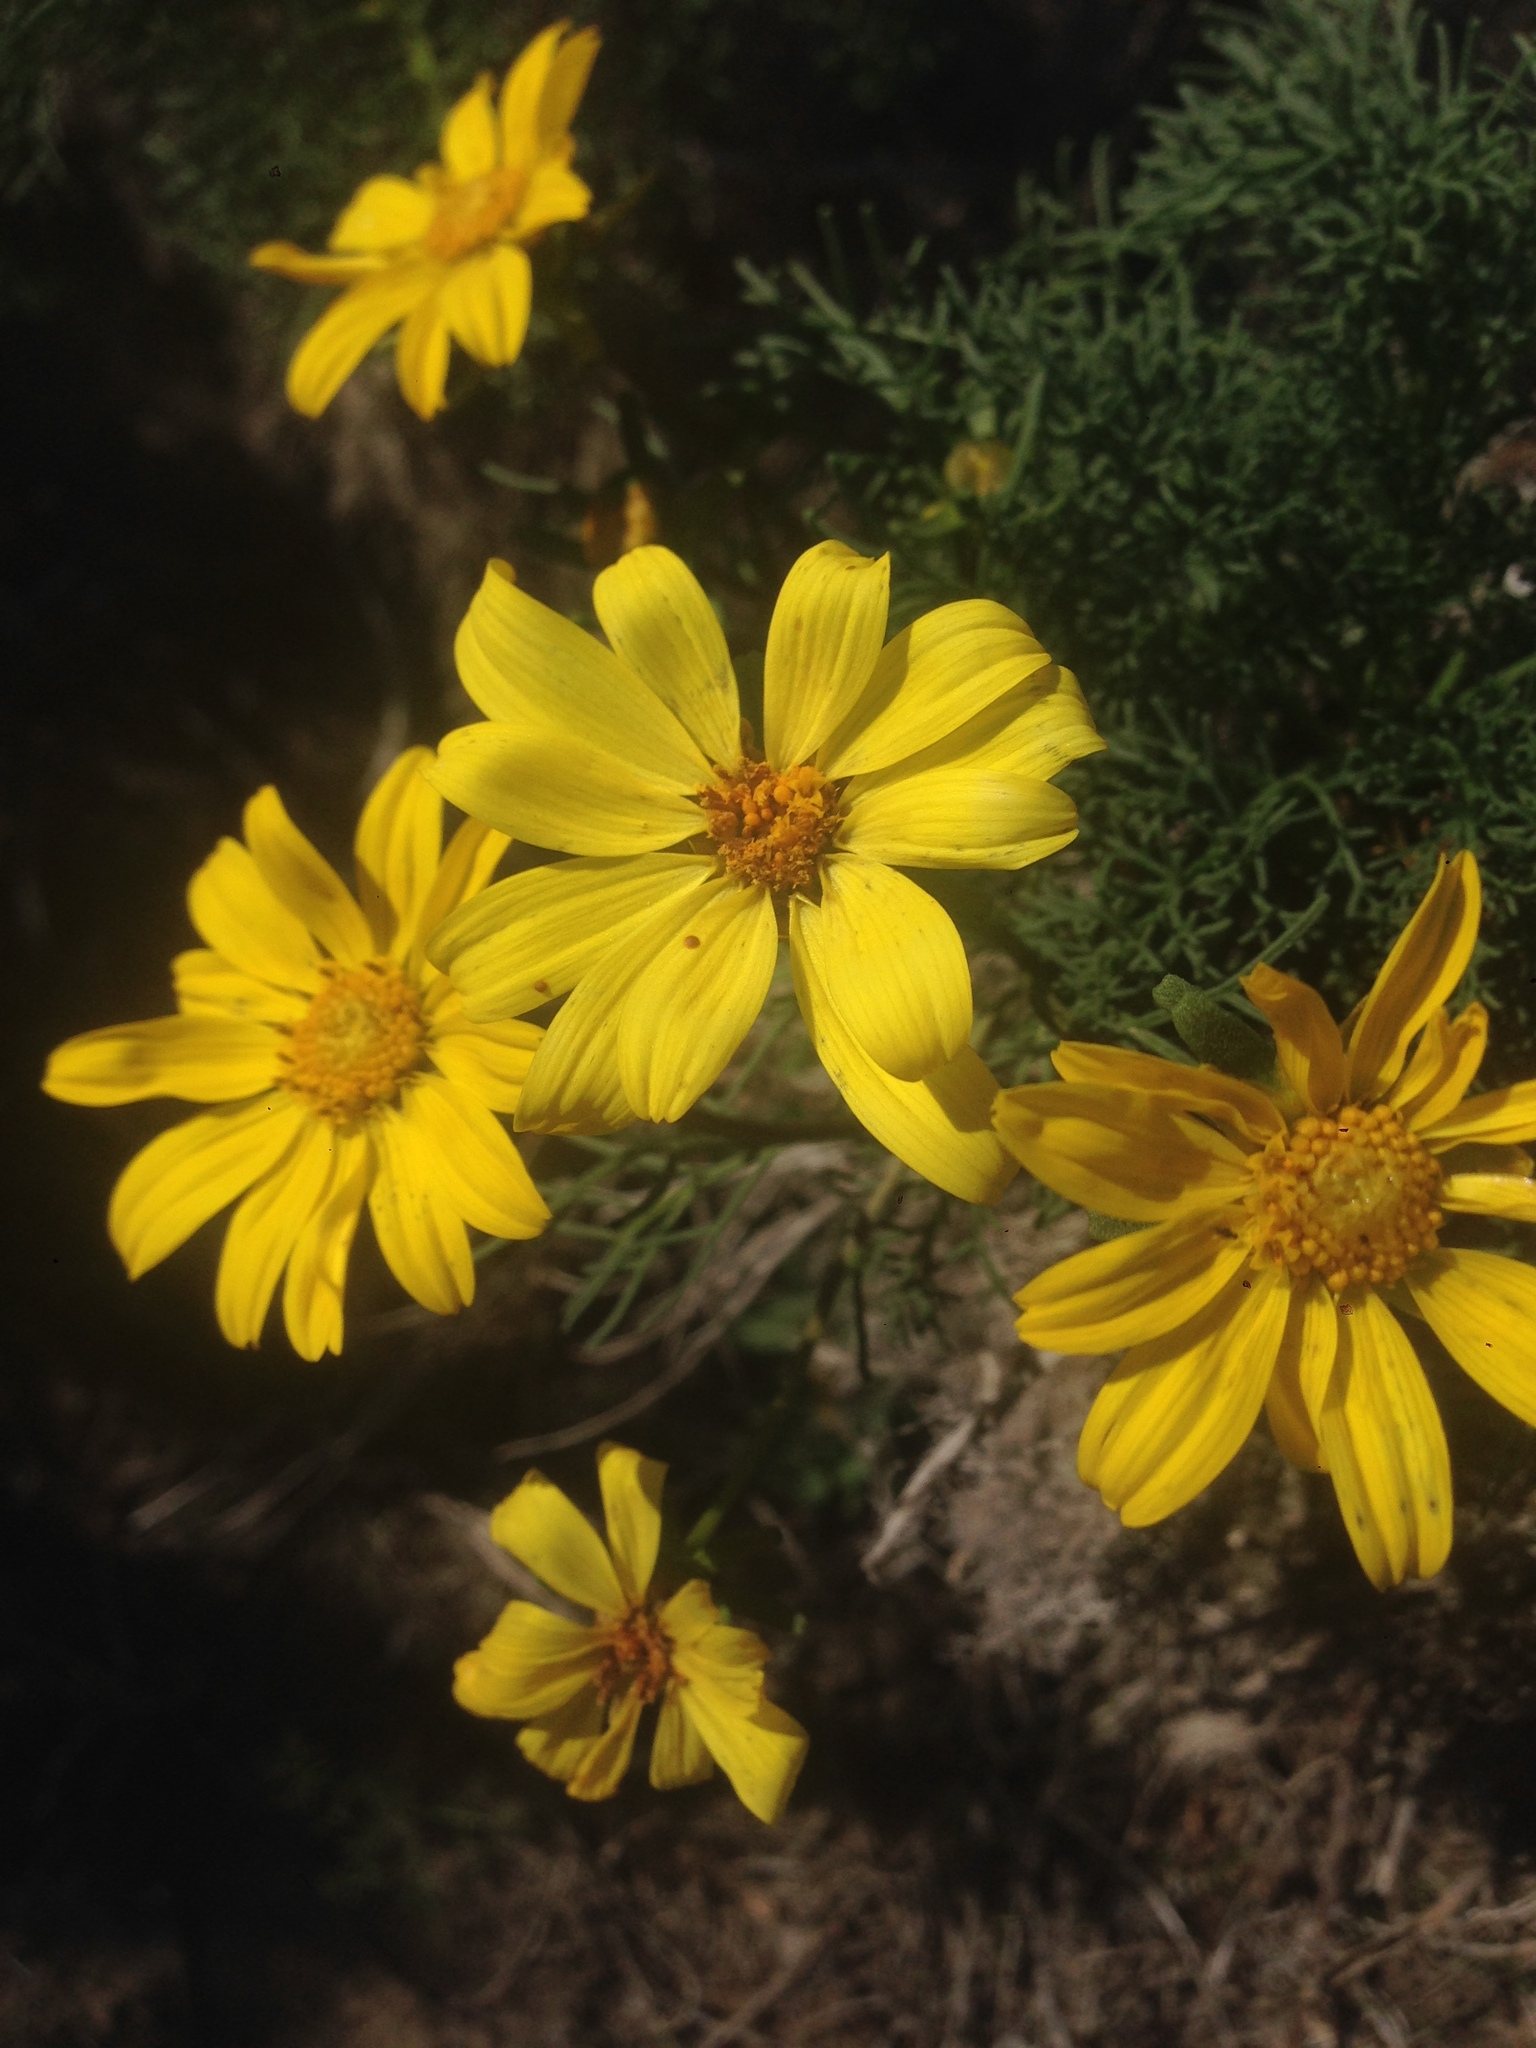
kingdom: Plantae
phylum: Tracheophyta
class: Magnoliopsida
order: Asterales
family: Asteraceae
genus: Coreopsis
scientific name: Coreopsis gigantea
